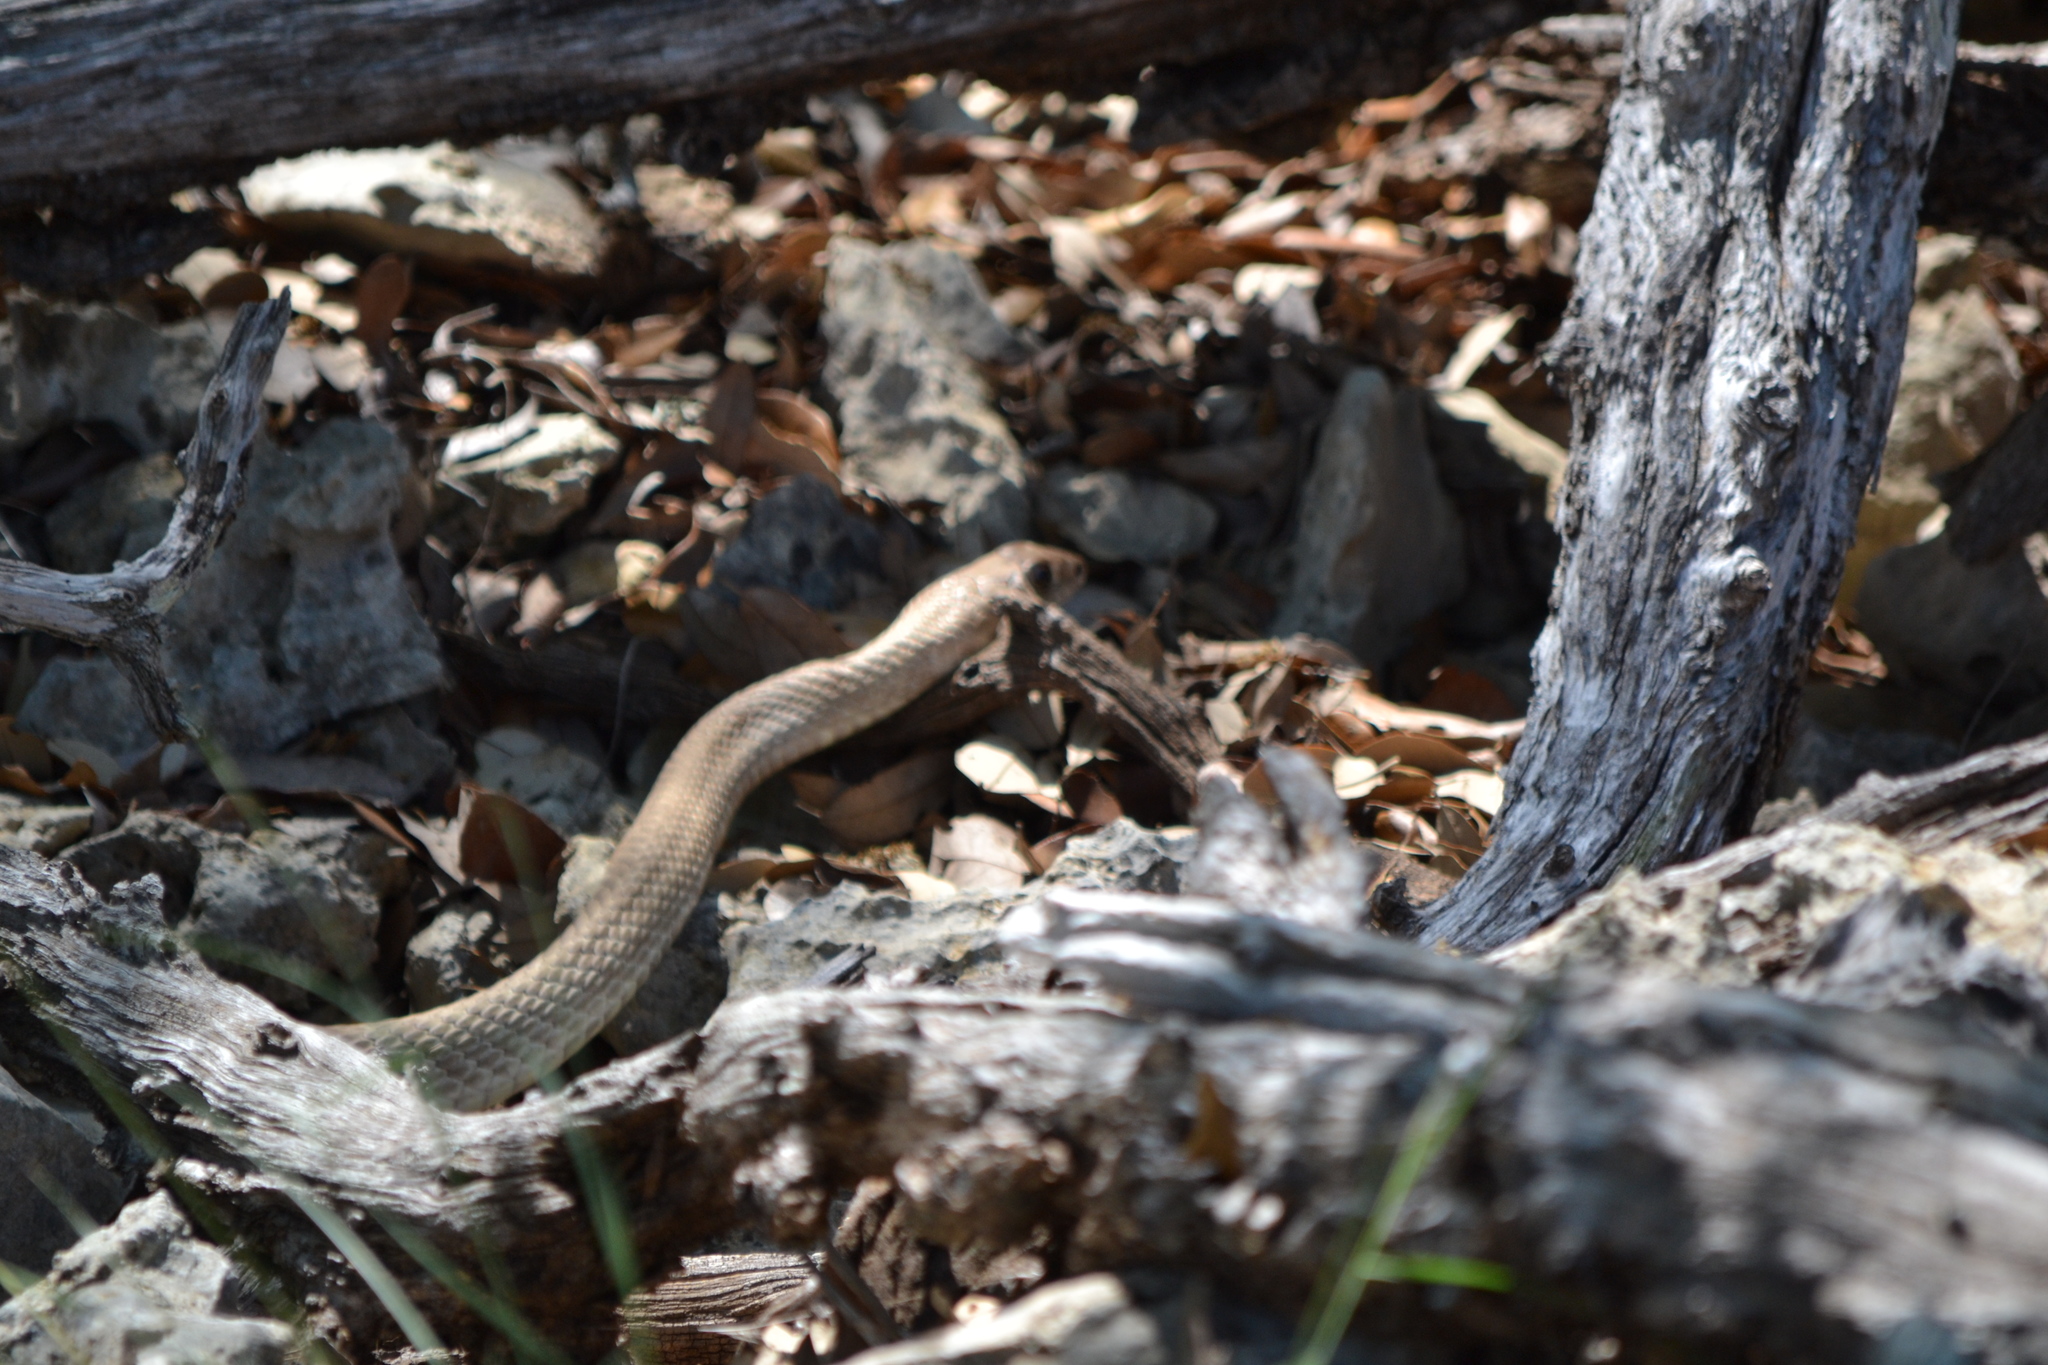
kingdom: Animalia
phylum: Chordata
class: Squamata
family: Colubridae
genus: Masticophis
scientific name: Masticophis flagellum
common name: Coachwhip
